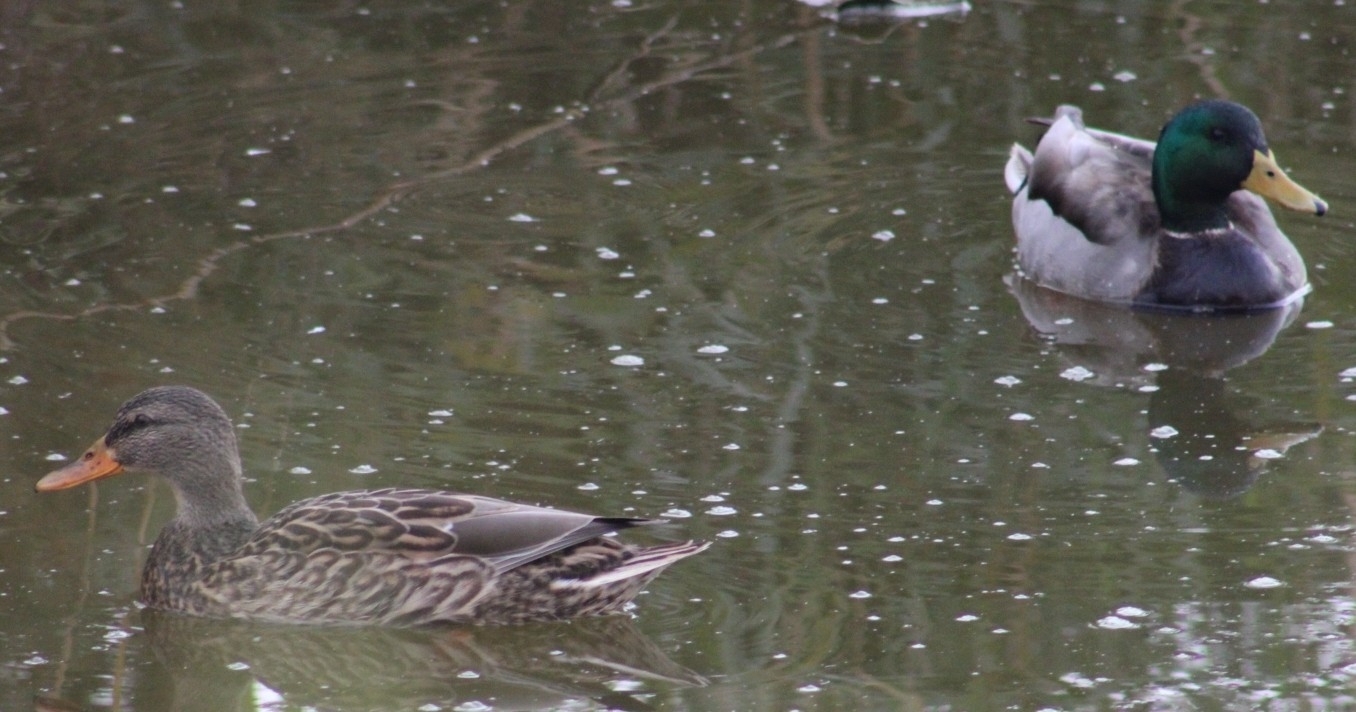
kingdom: Animalia
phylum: Chordata
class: Aves
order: Anseriformes
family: Anatidae
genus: Anas
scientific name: Anas platyrhynchos
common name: Mallard
